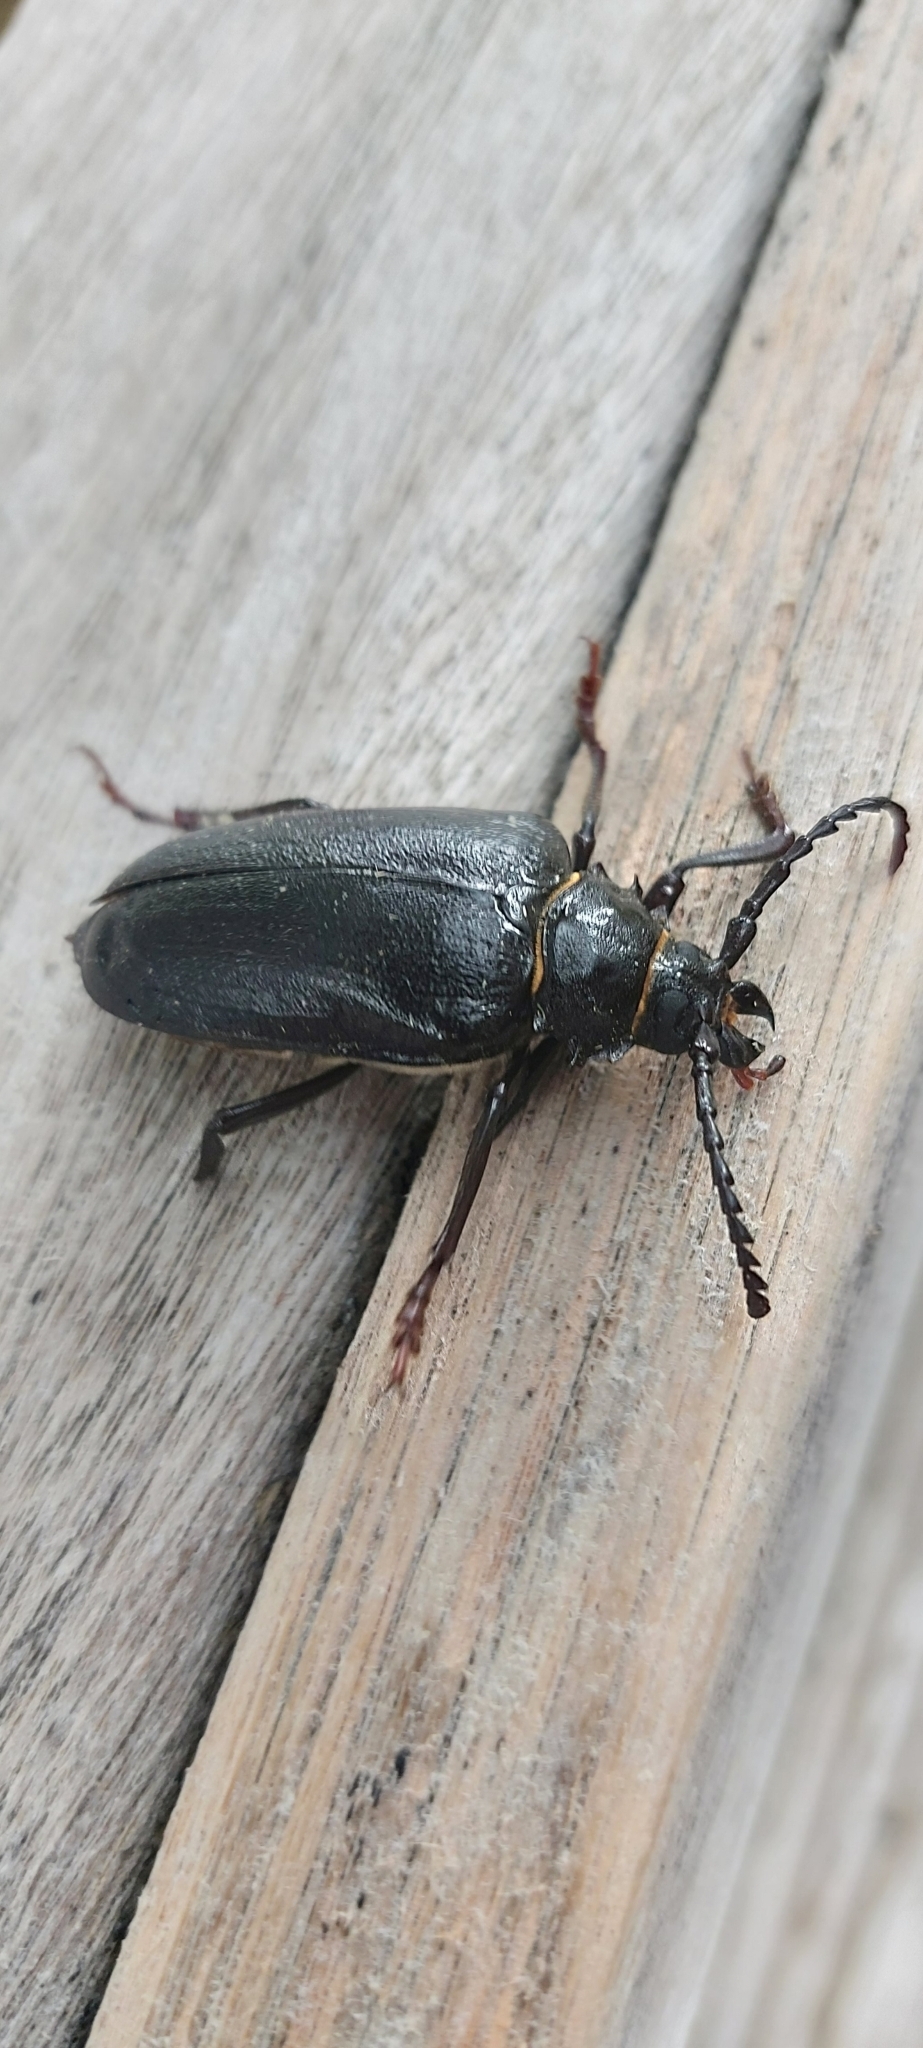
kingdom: Animalia
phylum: Arthropoda
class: Insecta
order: Coleoptera
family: Cerambycidae
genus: Prionus
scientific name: Prionus coriarius
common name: Tanner beetle
